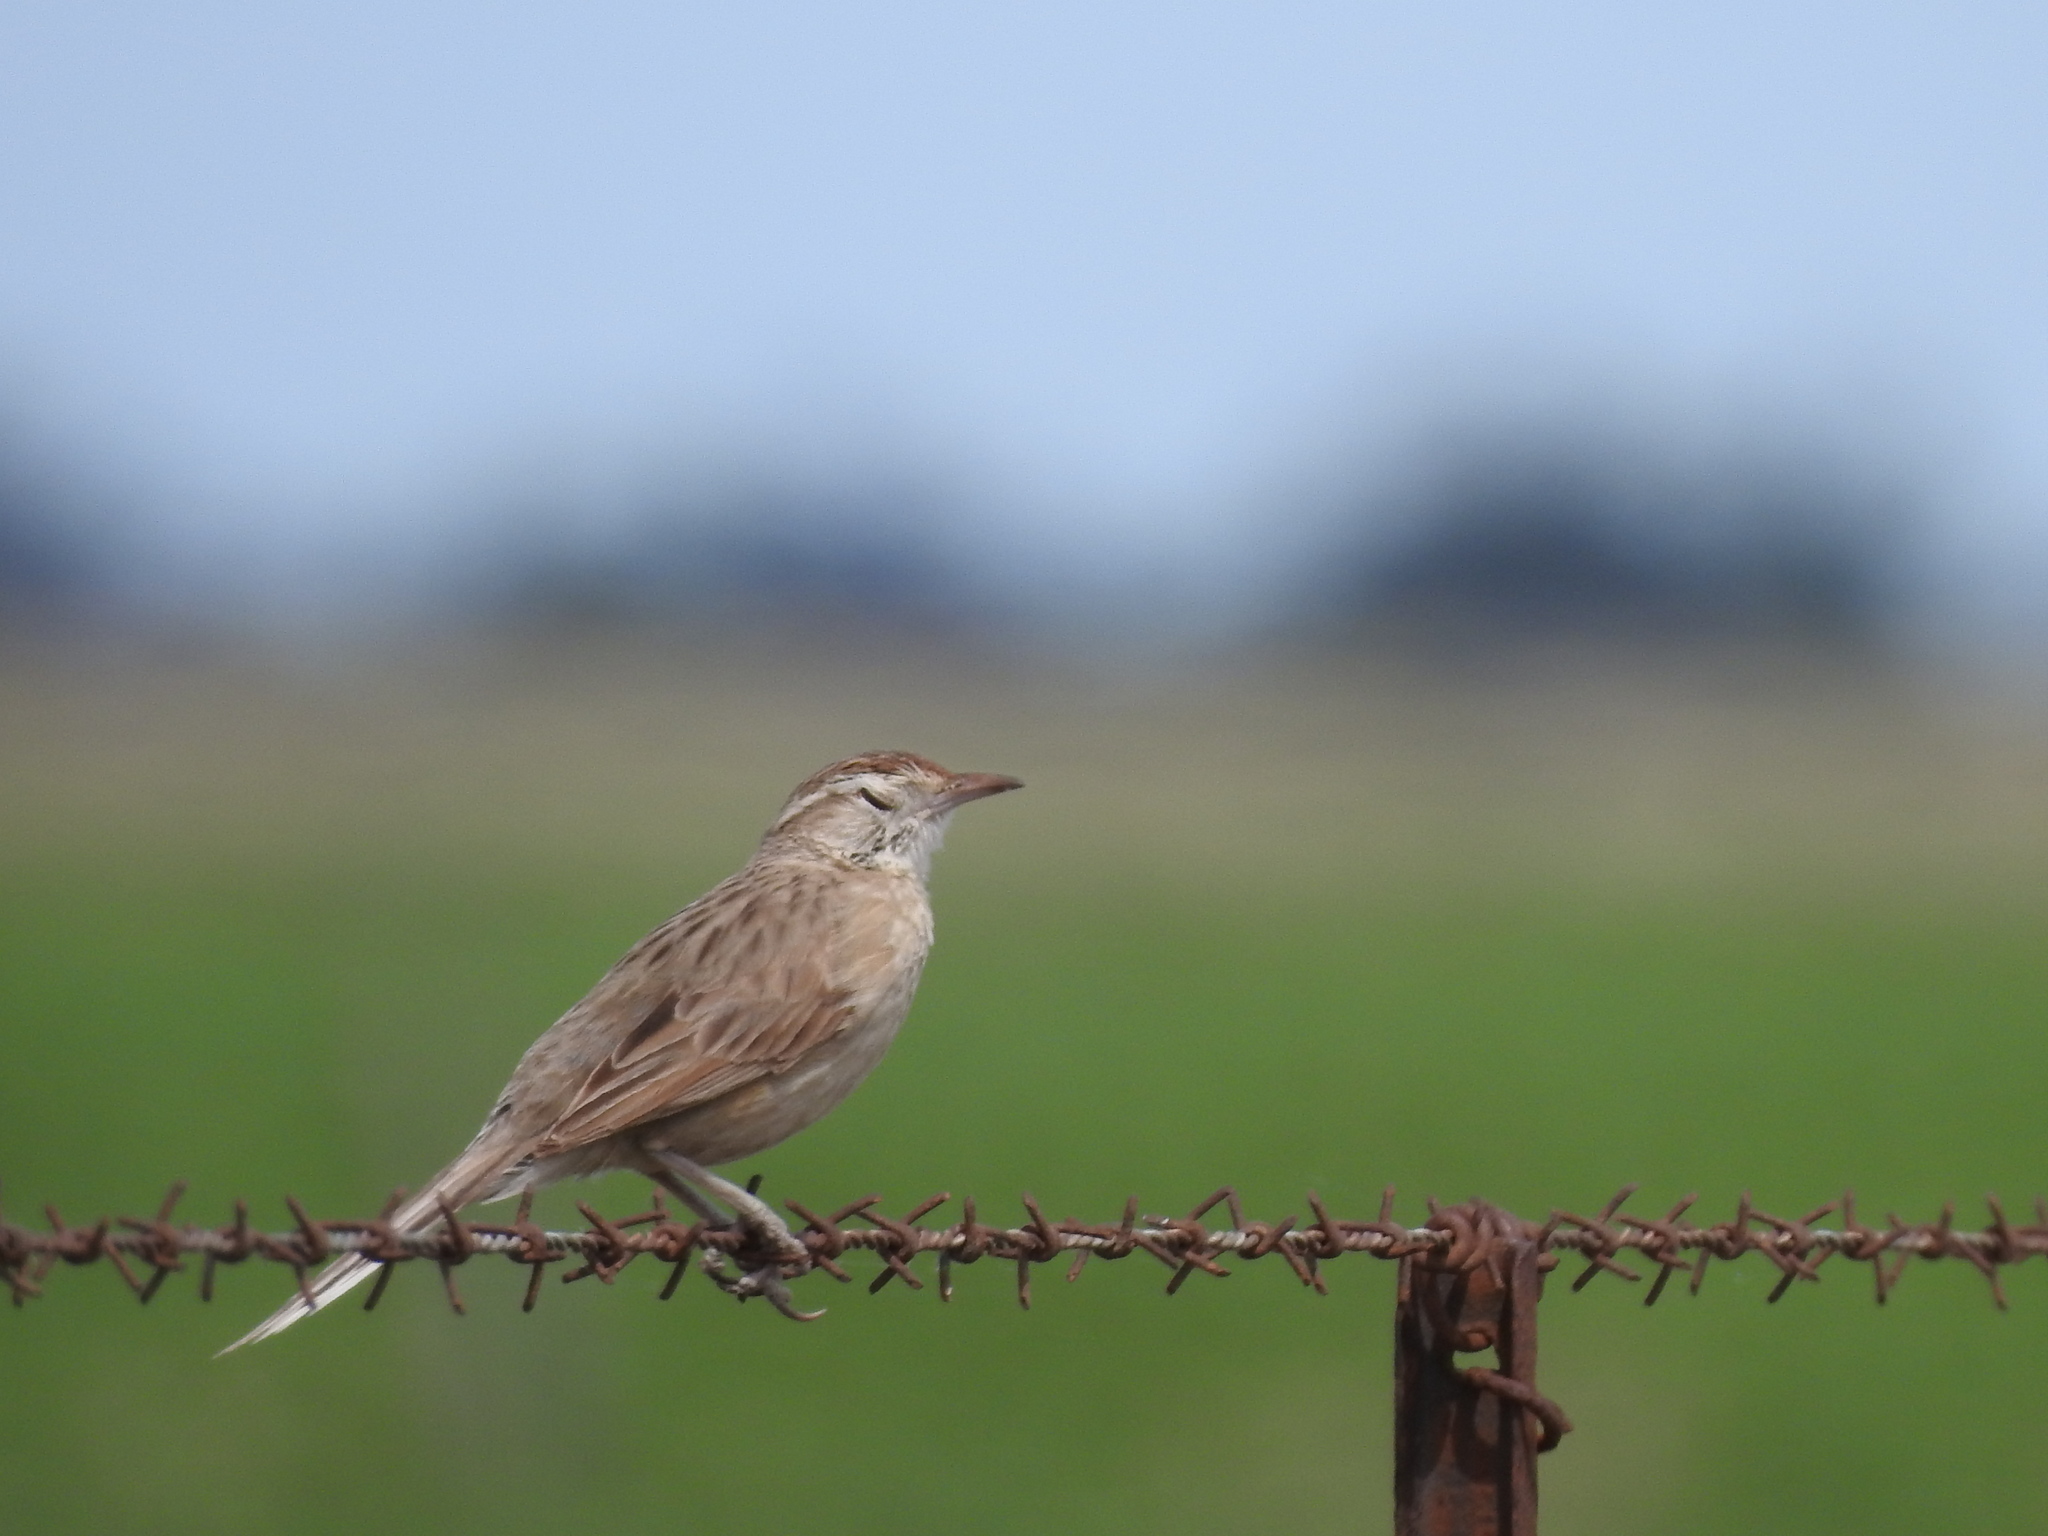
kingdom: Animalia
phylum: Chordata
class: Aves
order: Passeriformes
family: Furnariidae
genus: Anumbius
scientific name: Anumbius annumbi
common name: Firewood-gatherer
